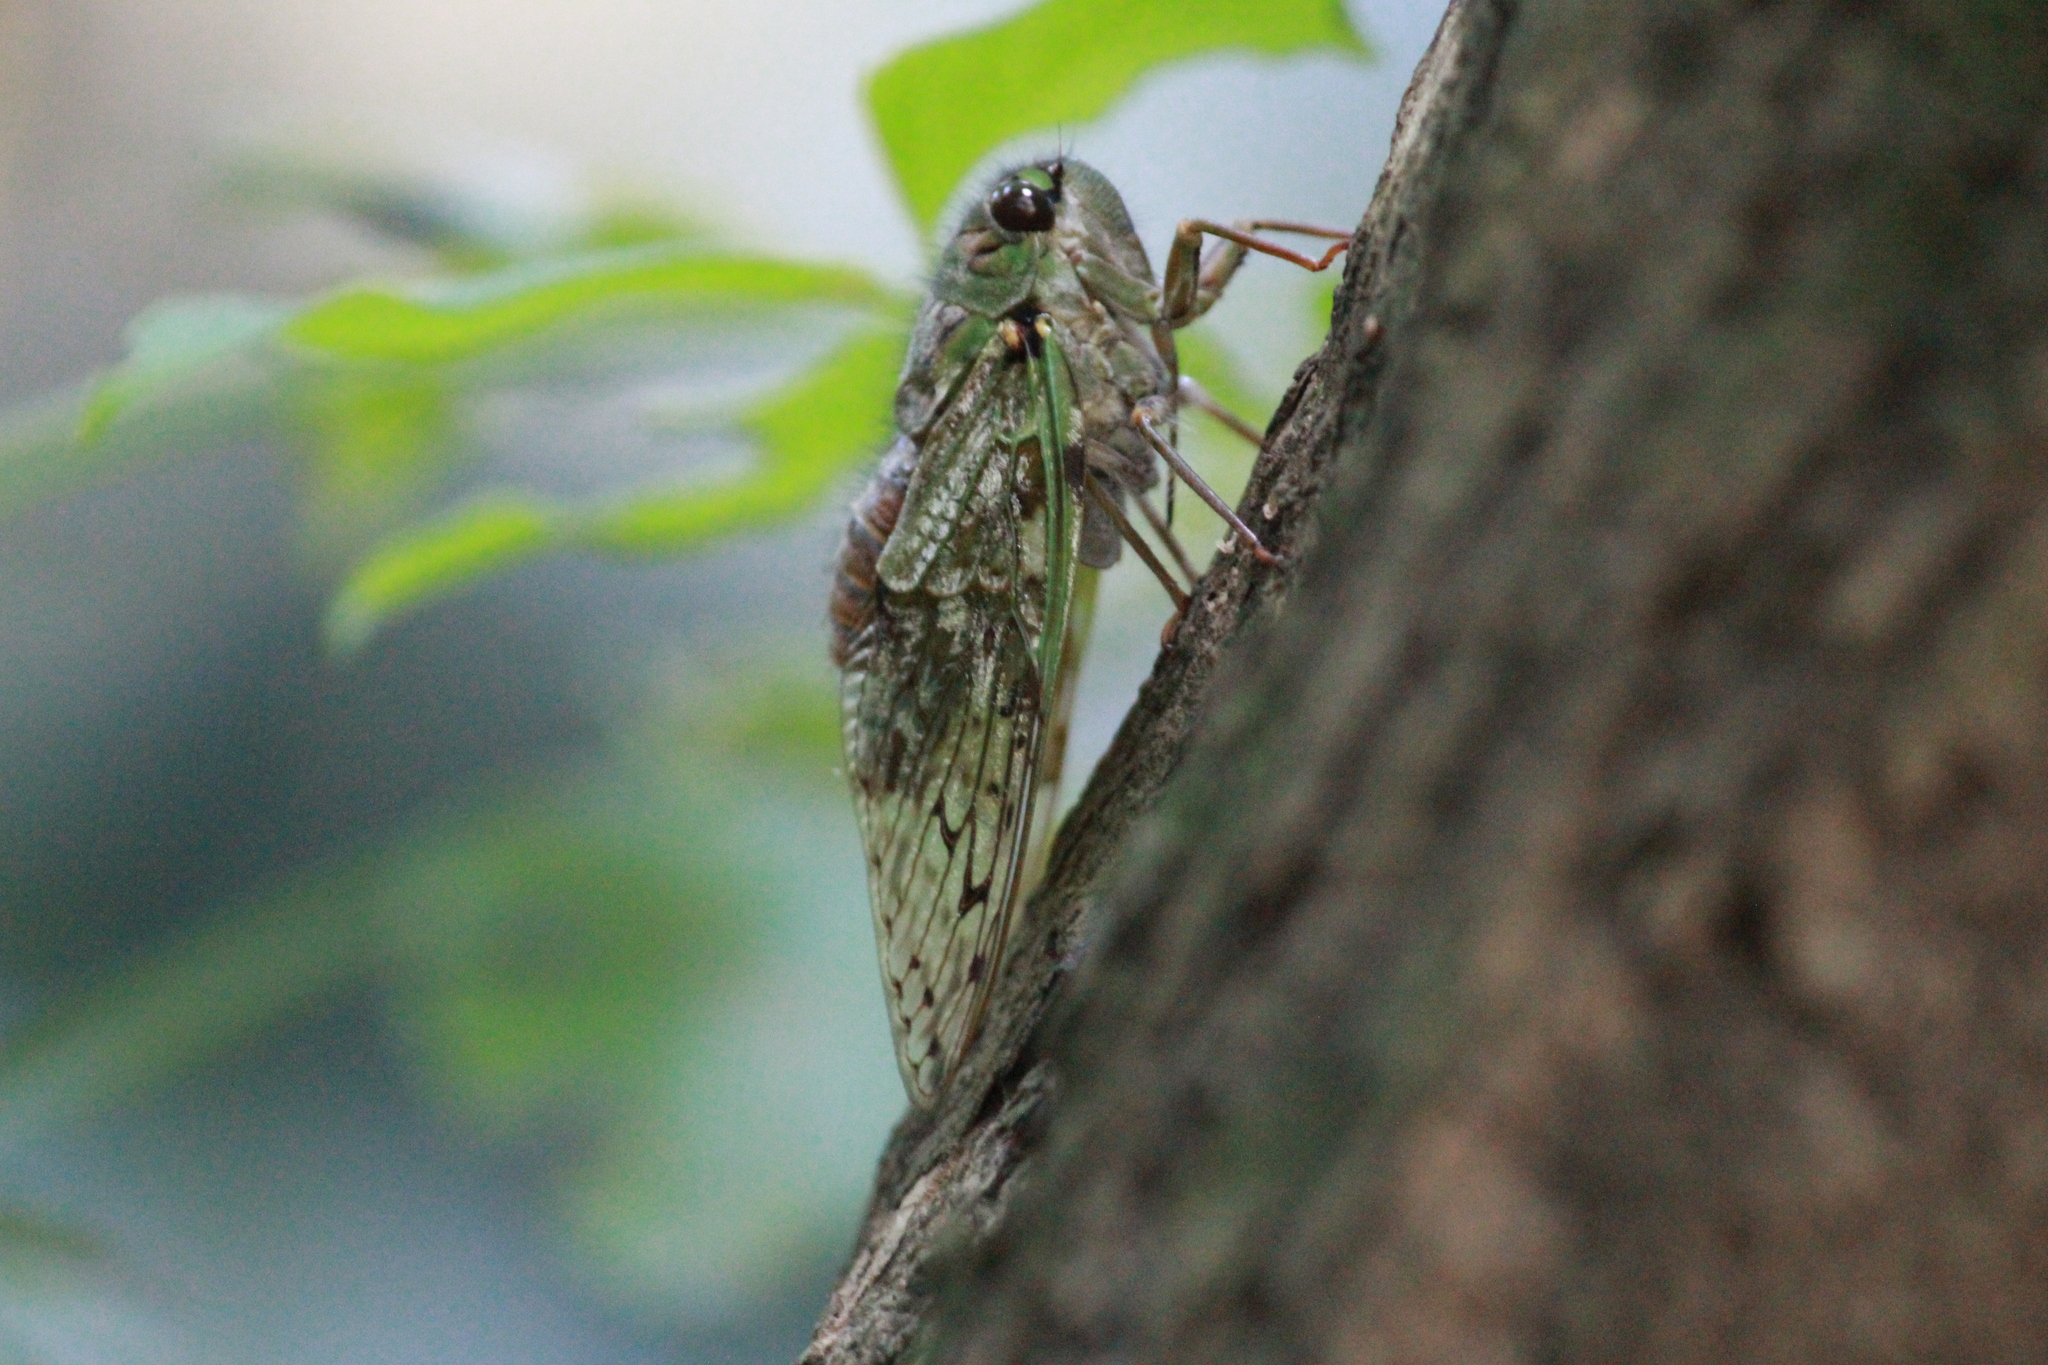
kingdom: Animalia
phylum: Arthropoda
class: Insecta
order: Hemiptera
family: Cicadidae
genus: Dyticopycna
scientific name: Dyticopycna semiclara
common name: Whining forest cicada
